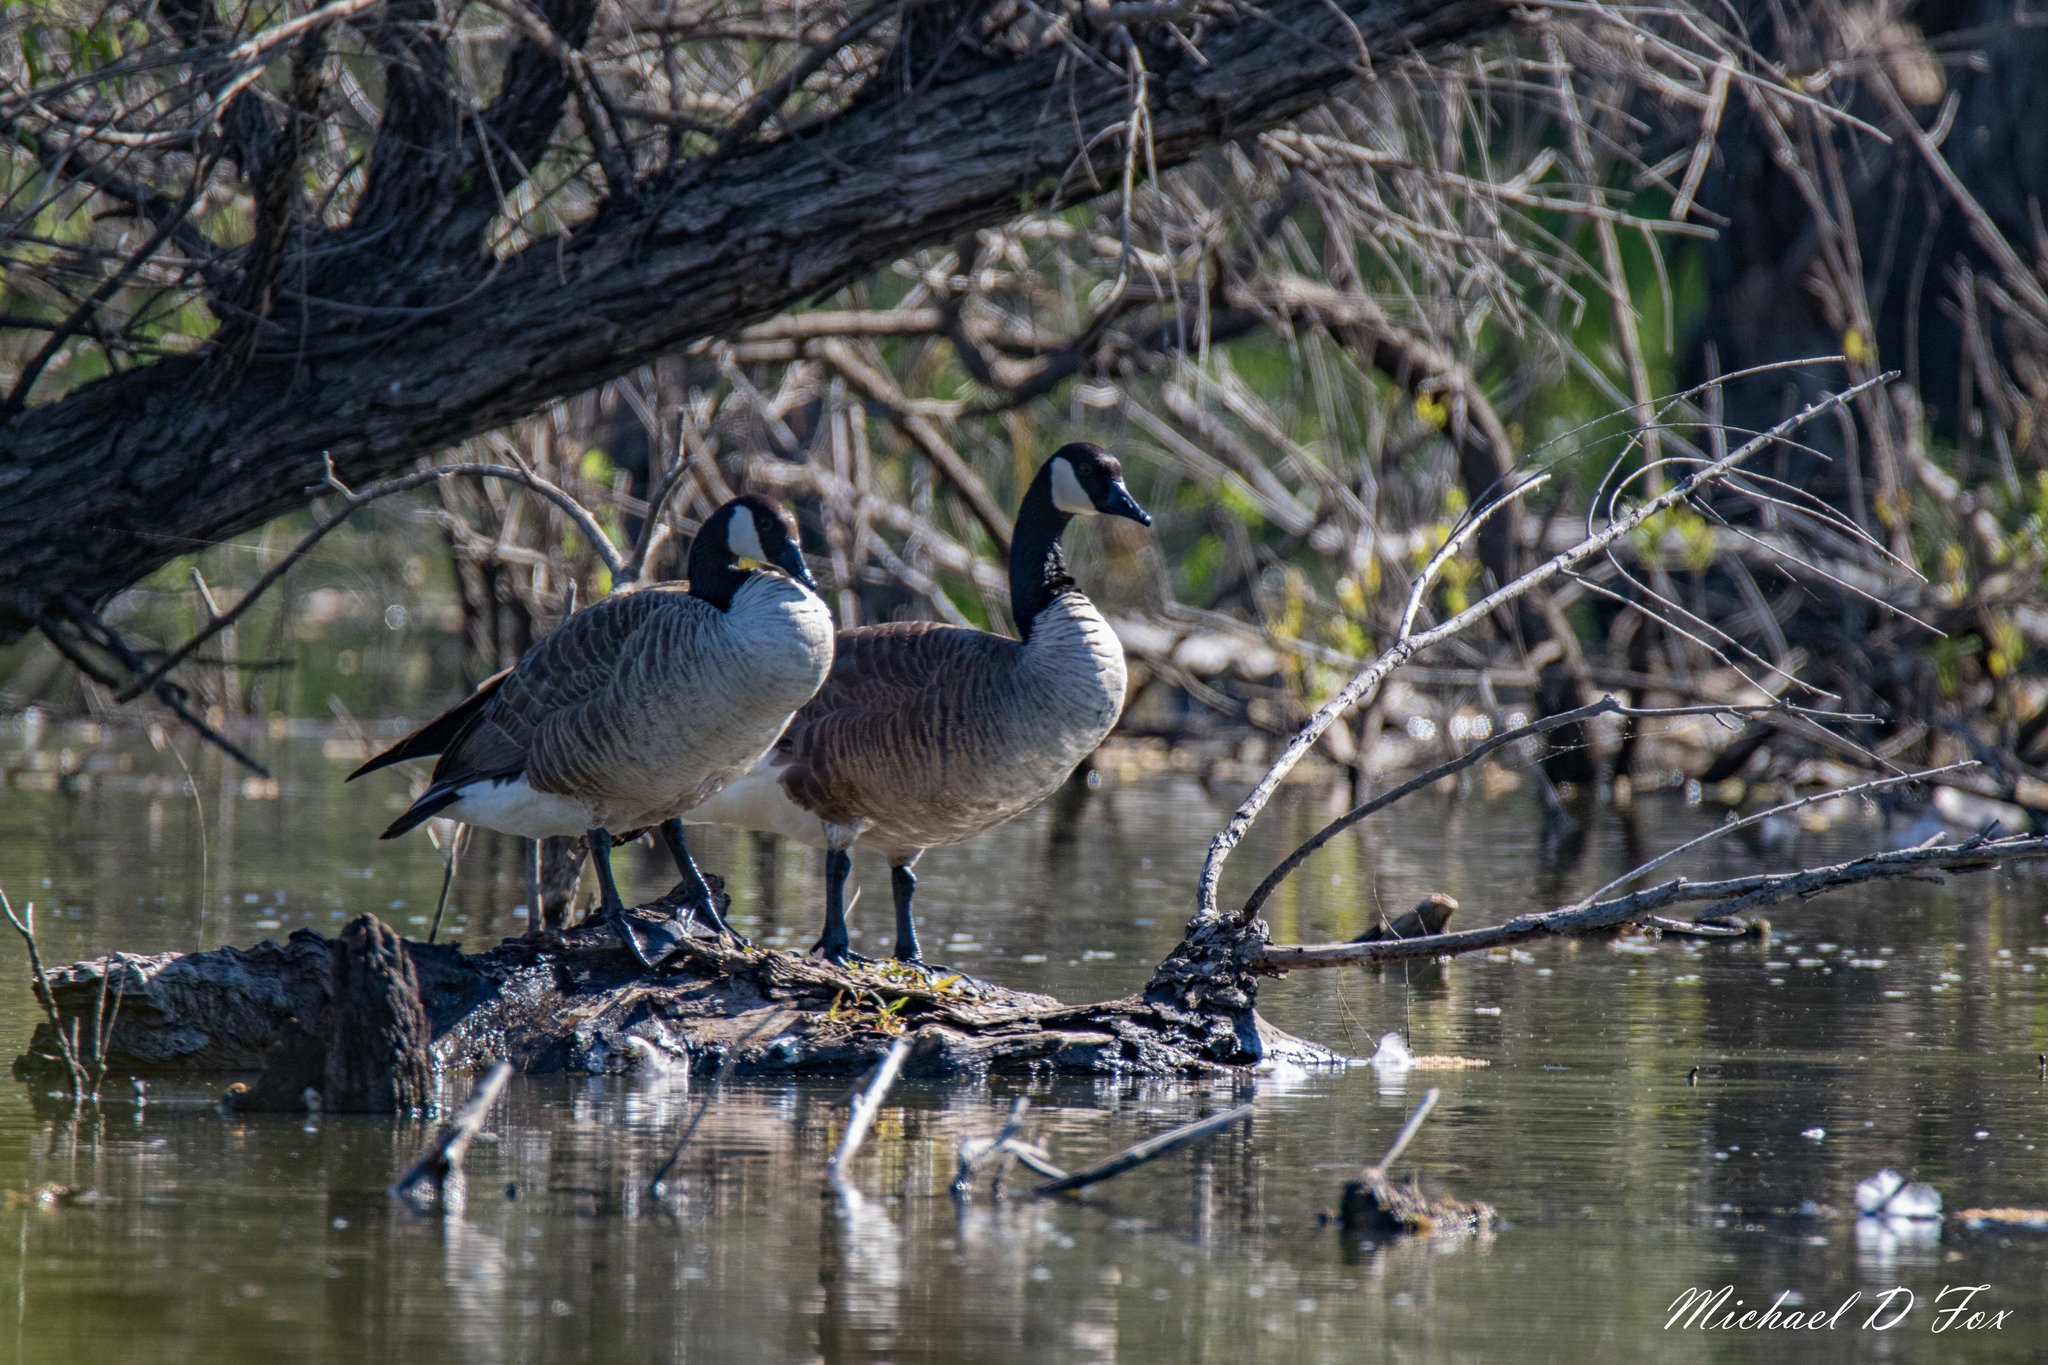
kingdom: Animalia
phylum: Chordata
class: Aves
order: Anseriformes
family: Anatidae
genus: Branta
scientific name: Branta canadensis
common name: Canada goose
